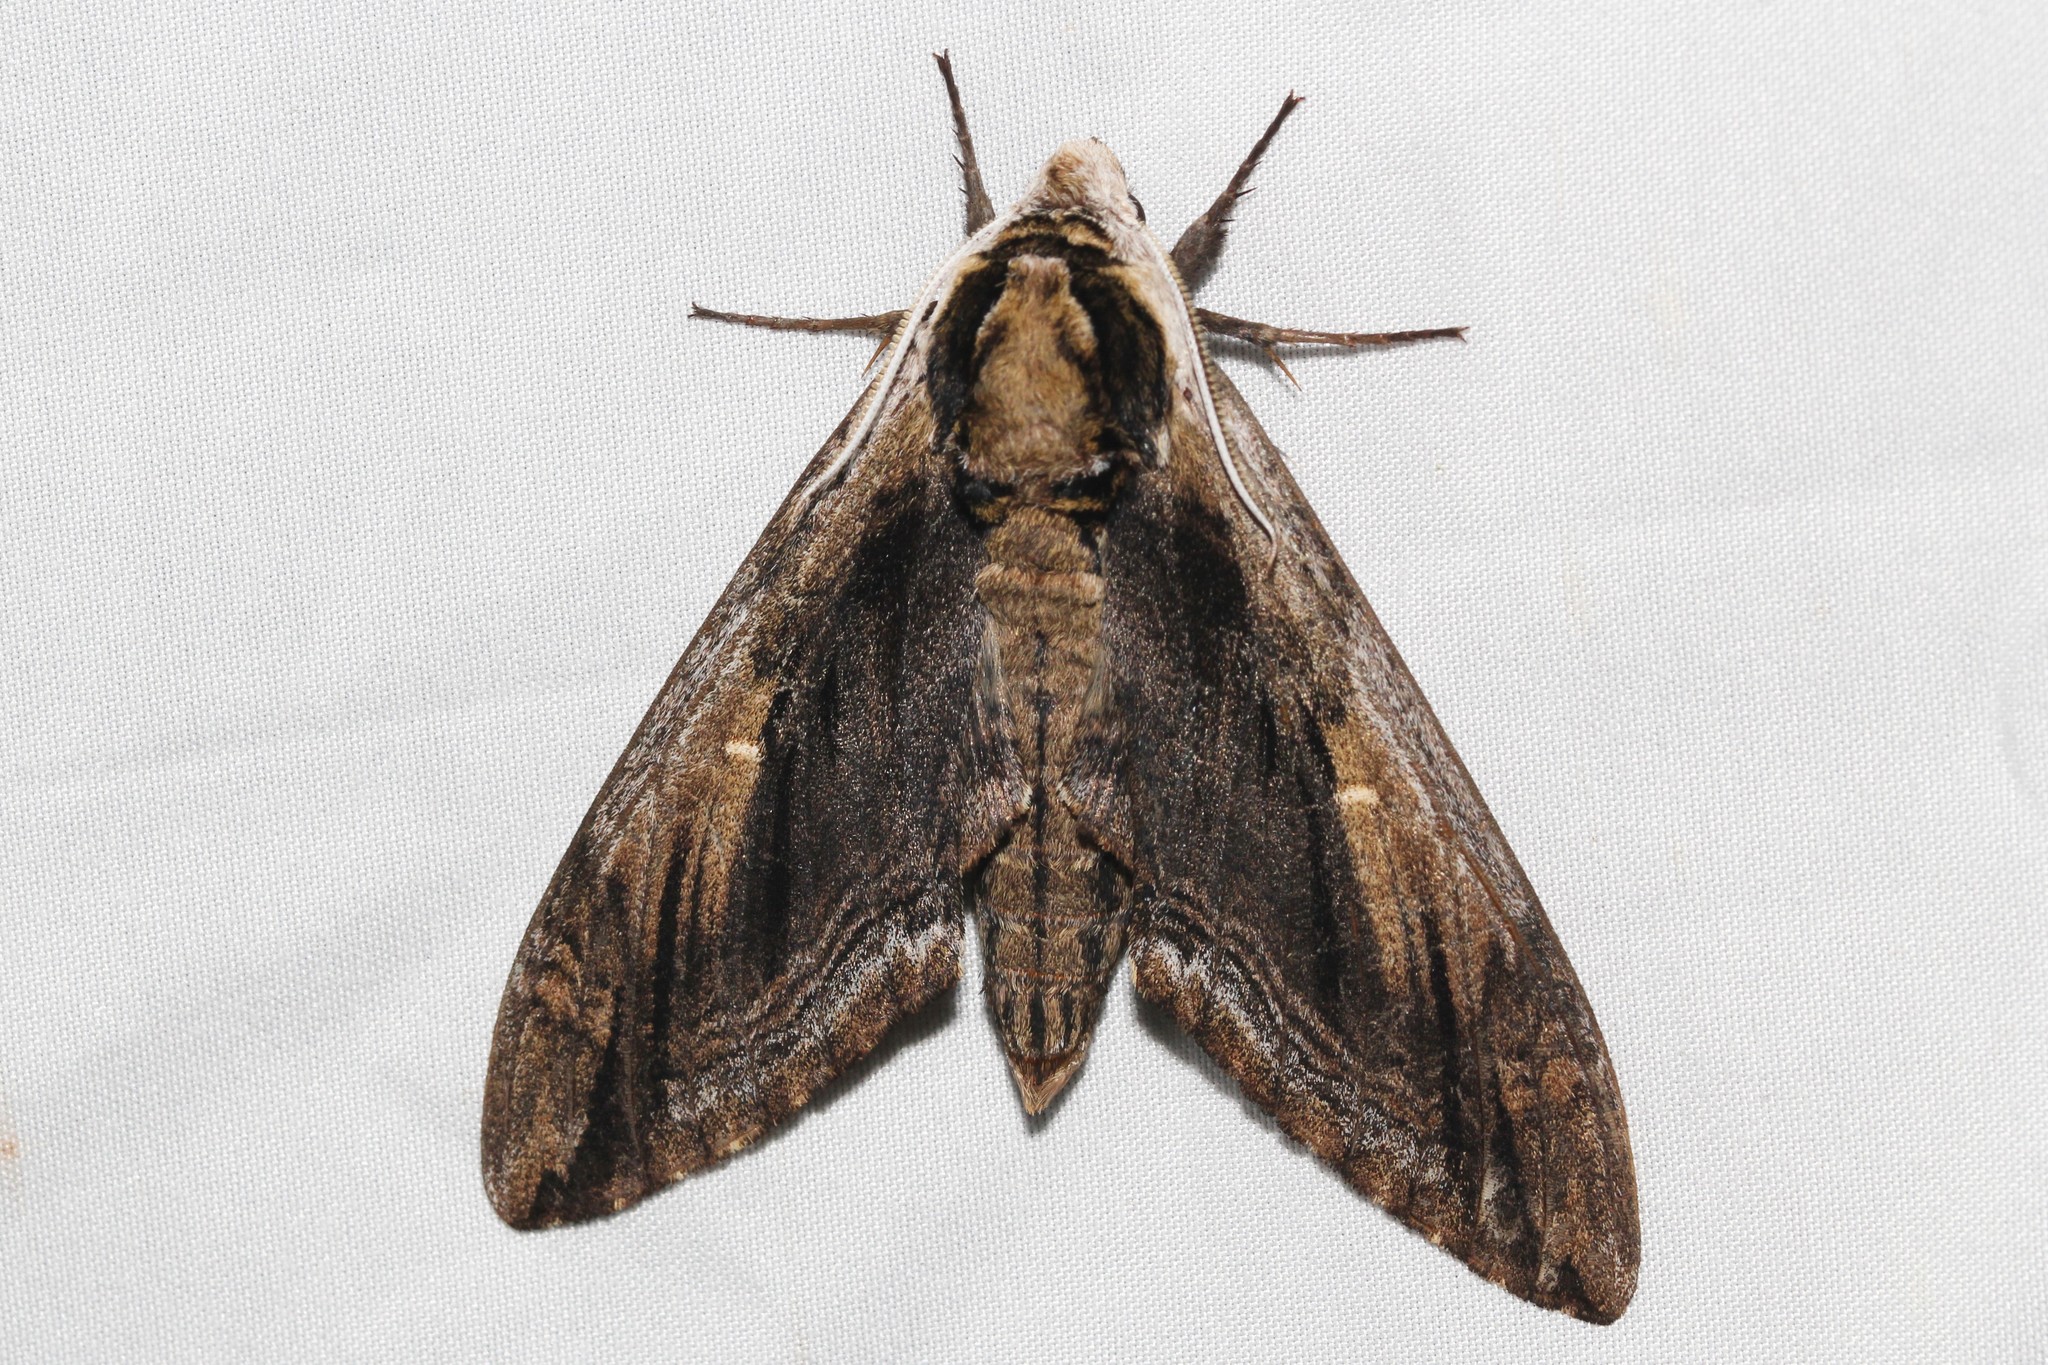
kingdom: Animalia
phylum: Arthropoda
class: Insecta
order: Lepidoptera
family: Sphingidae
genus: Ceratomia
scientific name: Ceratomia amyntor
